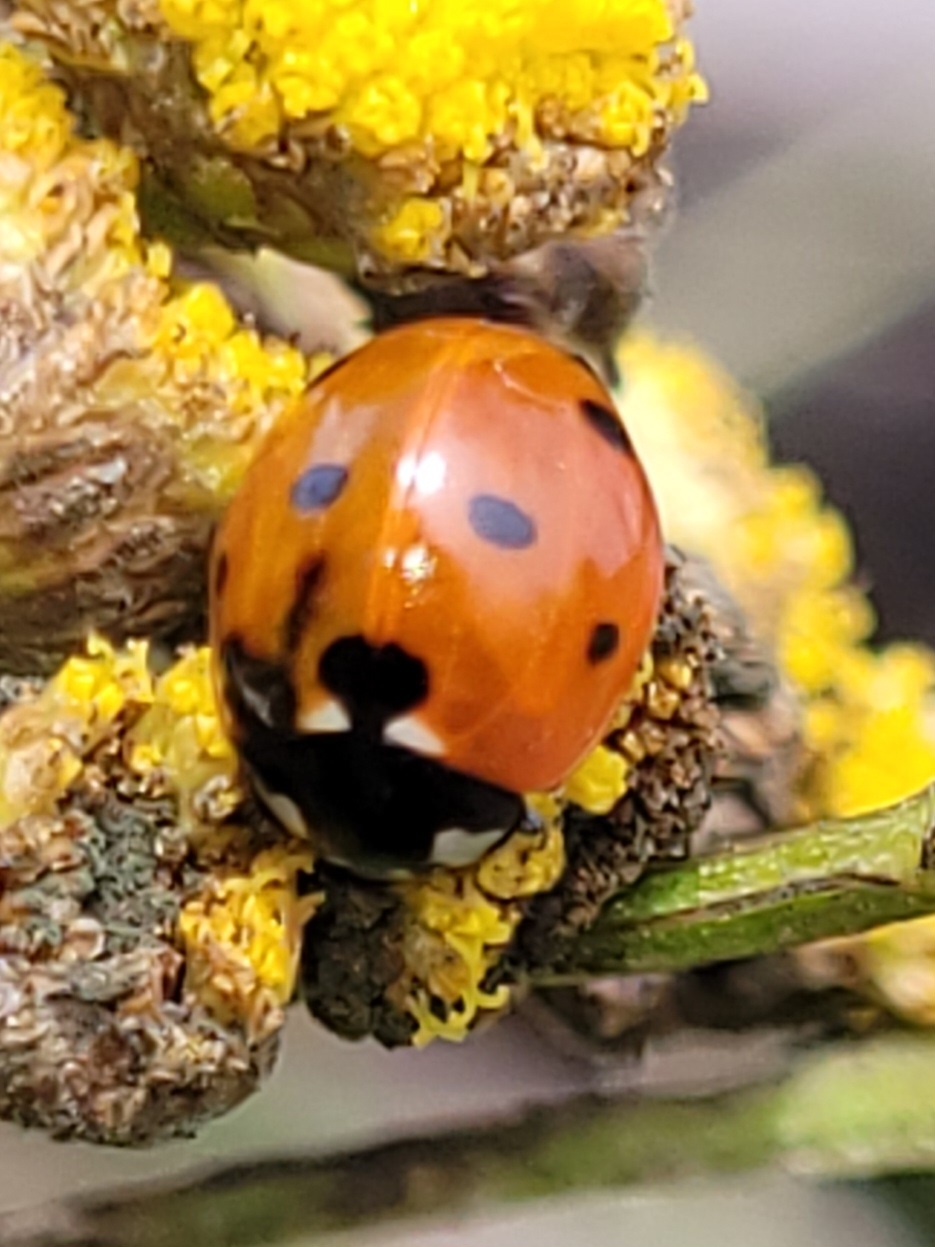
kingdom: Animalia
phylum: Arthropoda
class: Insecta
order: Coleoptera
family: Coccinellidae
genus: Coccinella
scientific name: Coccinella septempunctata
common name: Sevenspotted lady beetle
